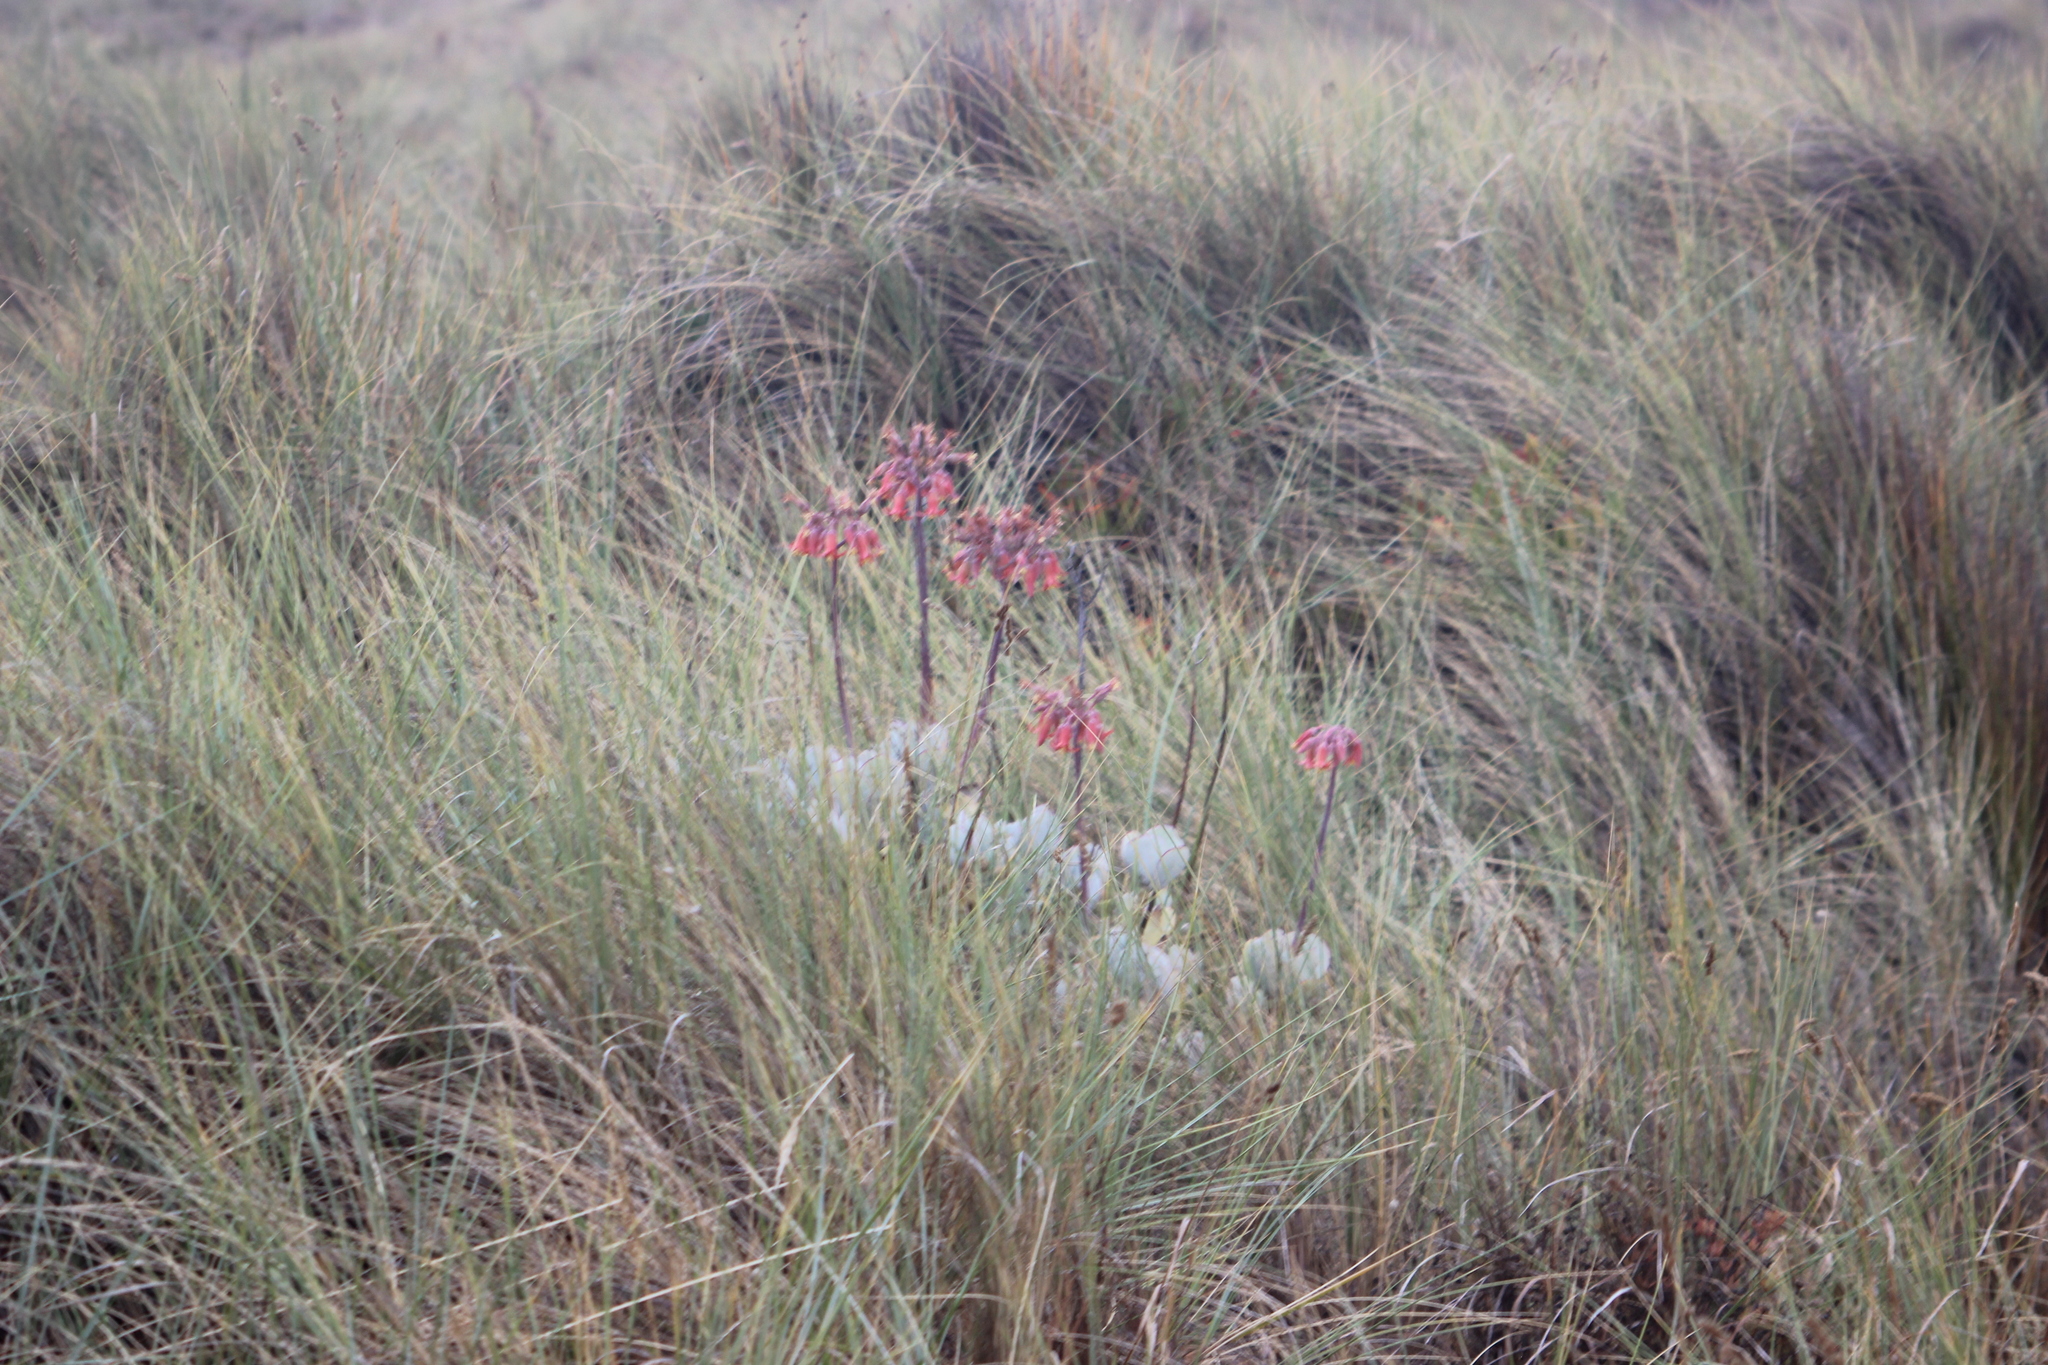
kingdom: Plantae
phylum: Tracheophyta
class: Magnoliopsida
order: Saxifragales
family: Crassulaceae
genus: Cotyledon
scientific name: Cotyledon orbiculata
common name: Pig's ear
